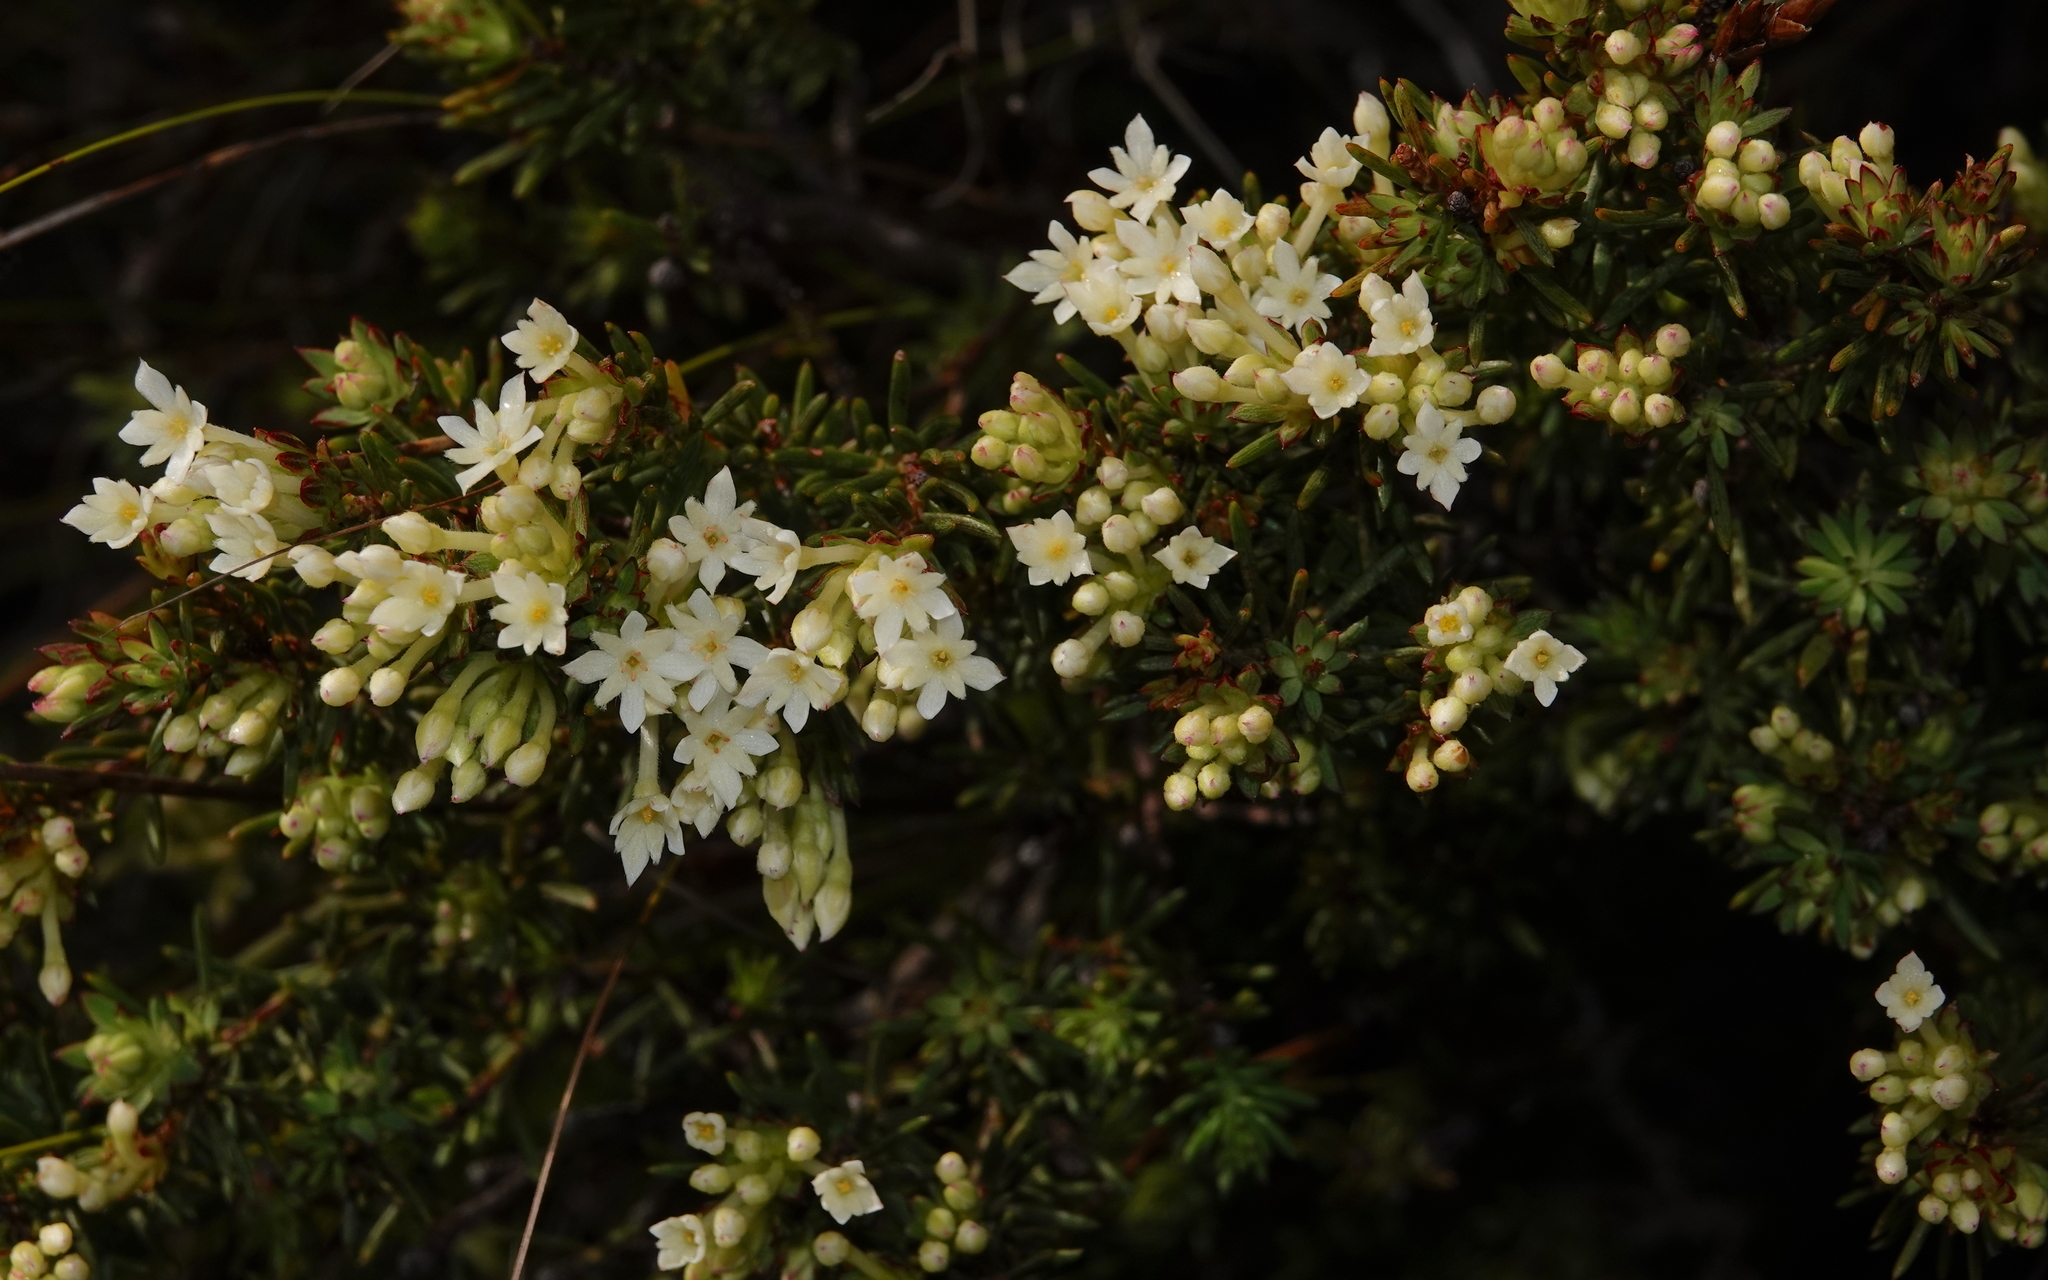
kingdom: Plantae
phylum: Tracheophyta
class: Magnoliopsida
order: Malvales
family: Thymelaeaceae
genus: Gnidia
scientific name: Gnidia pinifolia
